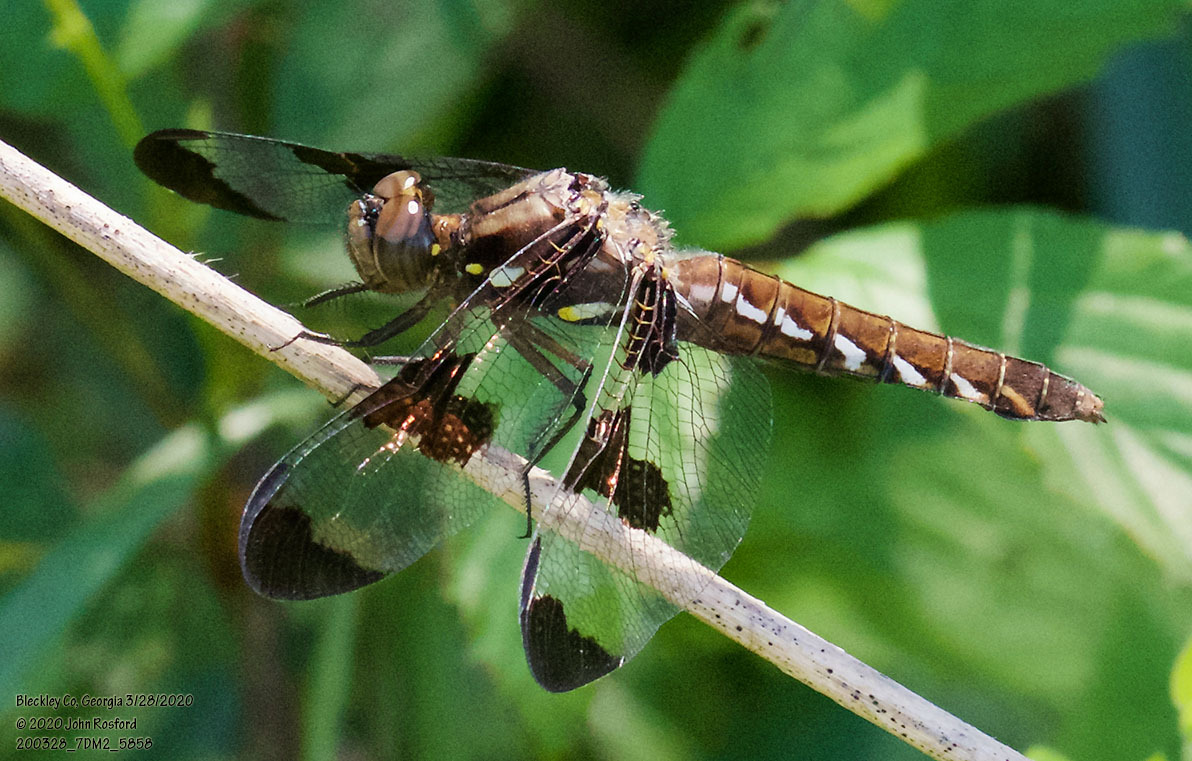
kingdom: Animalia
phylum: Arthropoda
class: Insecta
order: Odonata
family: Libellulidae
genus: Plathemis
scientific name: Plathemis lydia
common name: Common whitetail
